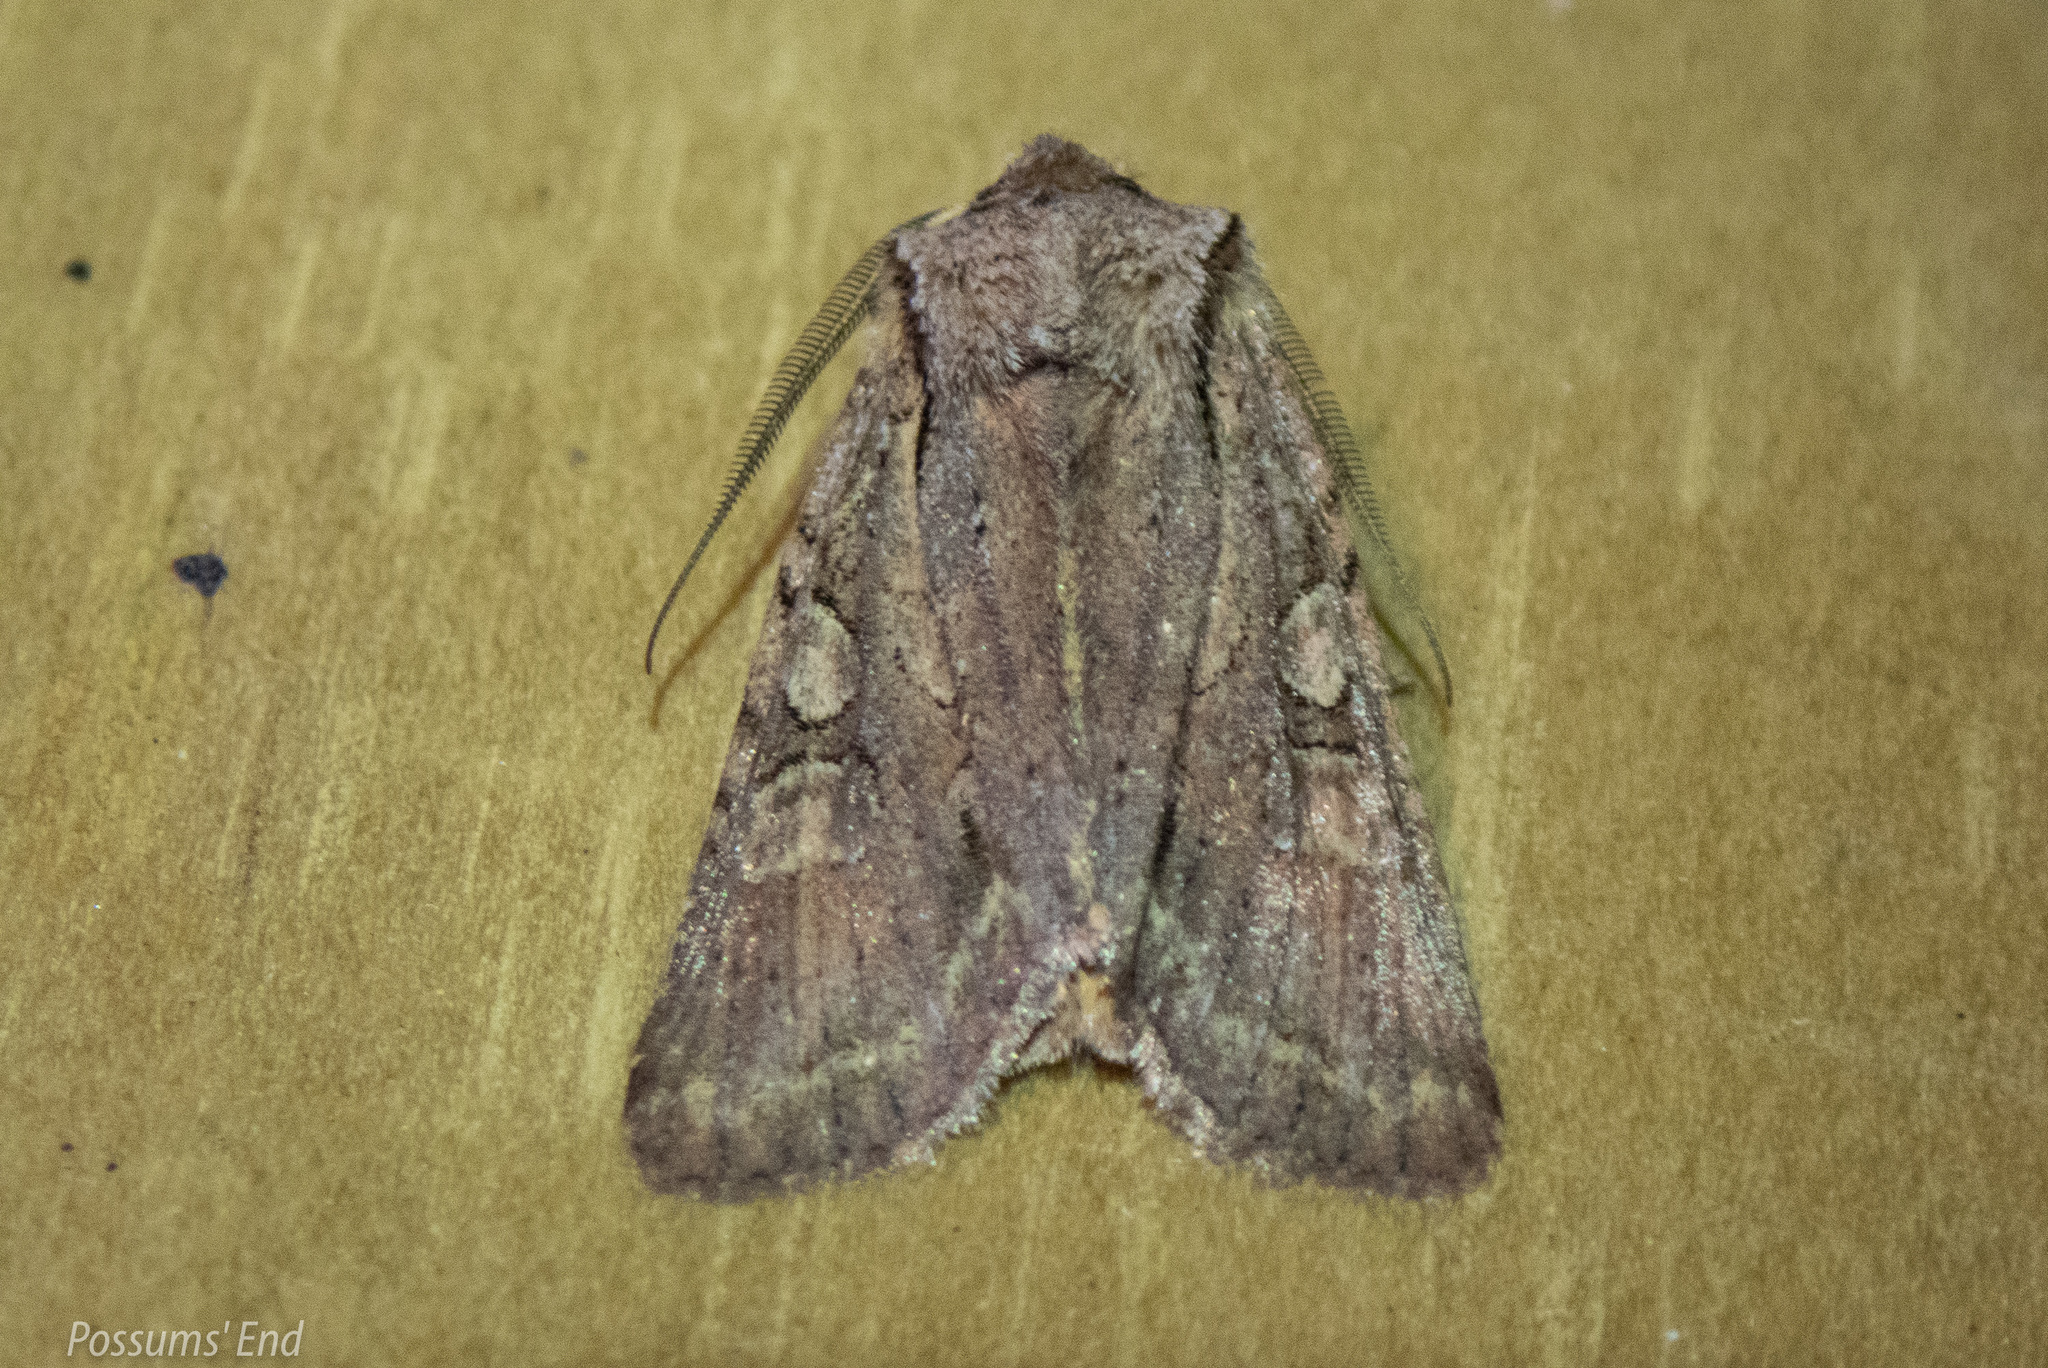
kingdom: Animalia
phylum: Arthropoda
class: Insecta
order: Lepidoptera
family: Noctuidae
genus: Ichneutica
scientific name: Ichneutica
